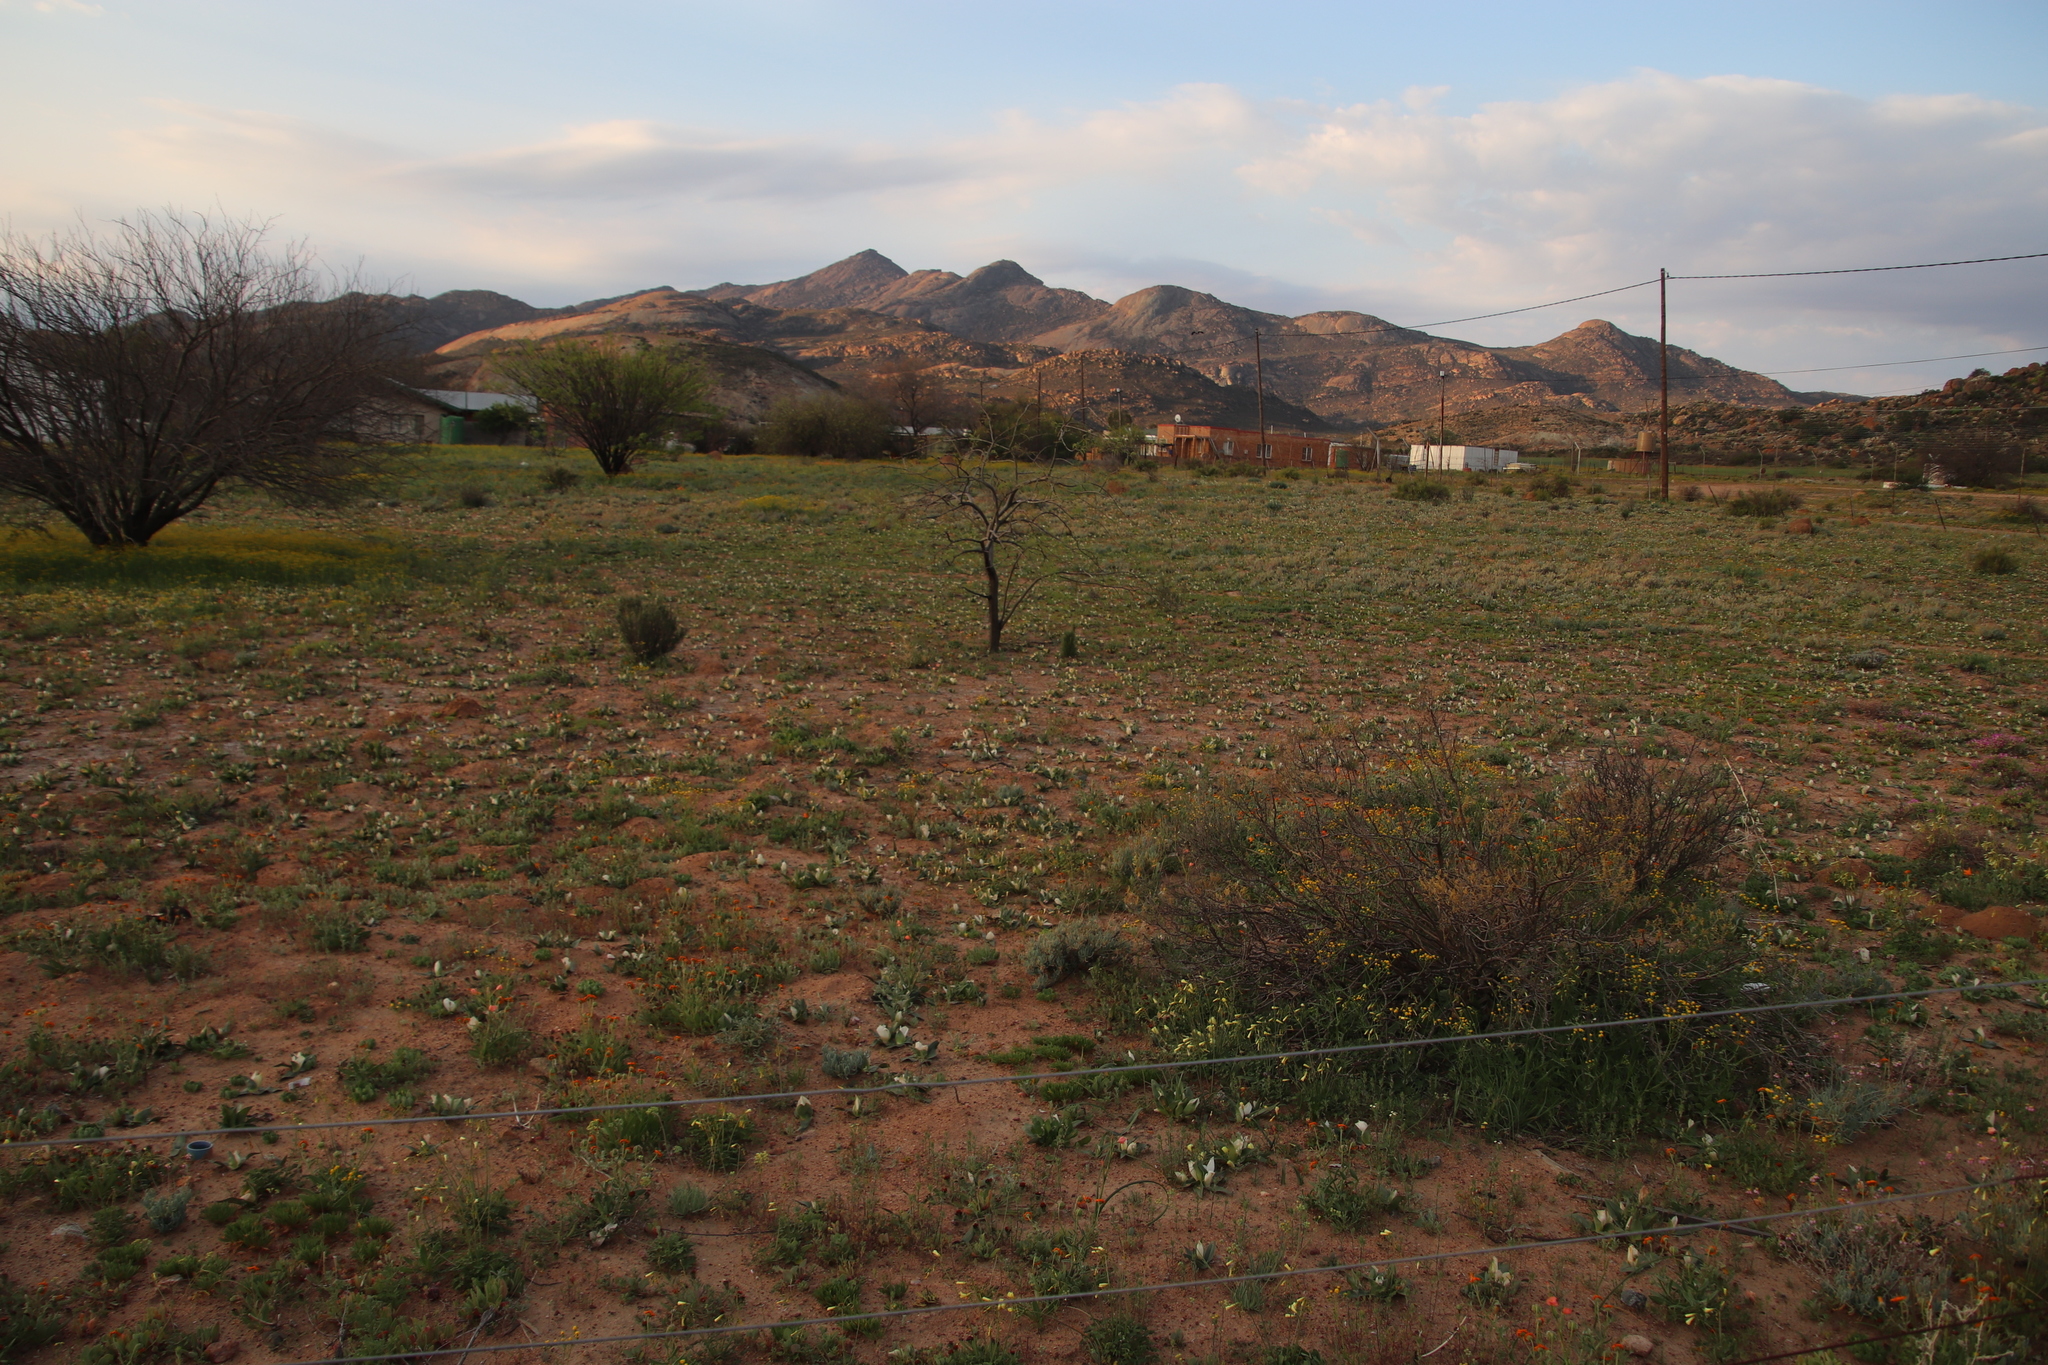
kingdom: Plantae
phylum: Tracheophyta
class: Liliopsida
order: Liliales
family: Colchicaceae
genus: Colchicum
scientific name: Colchicum capense
